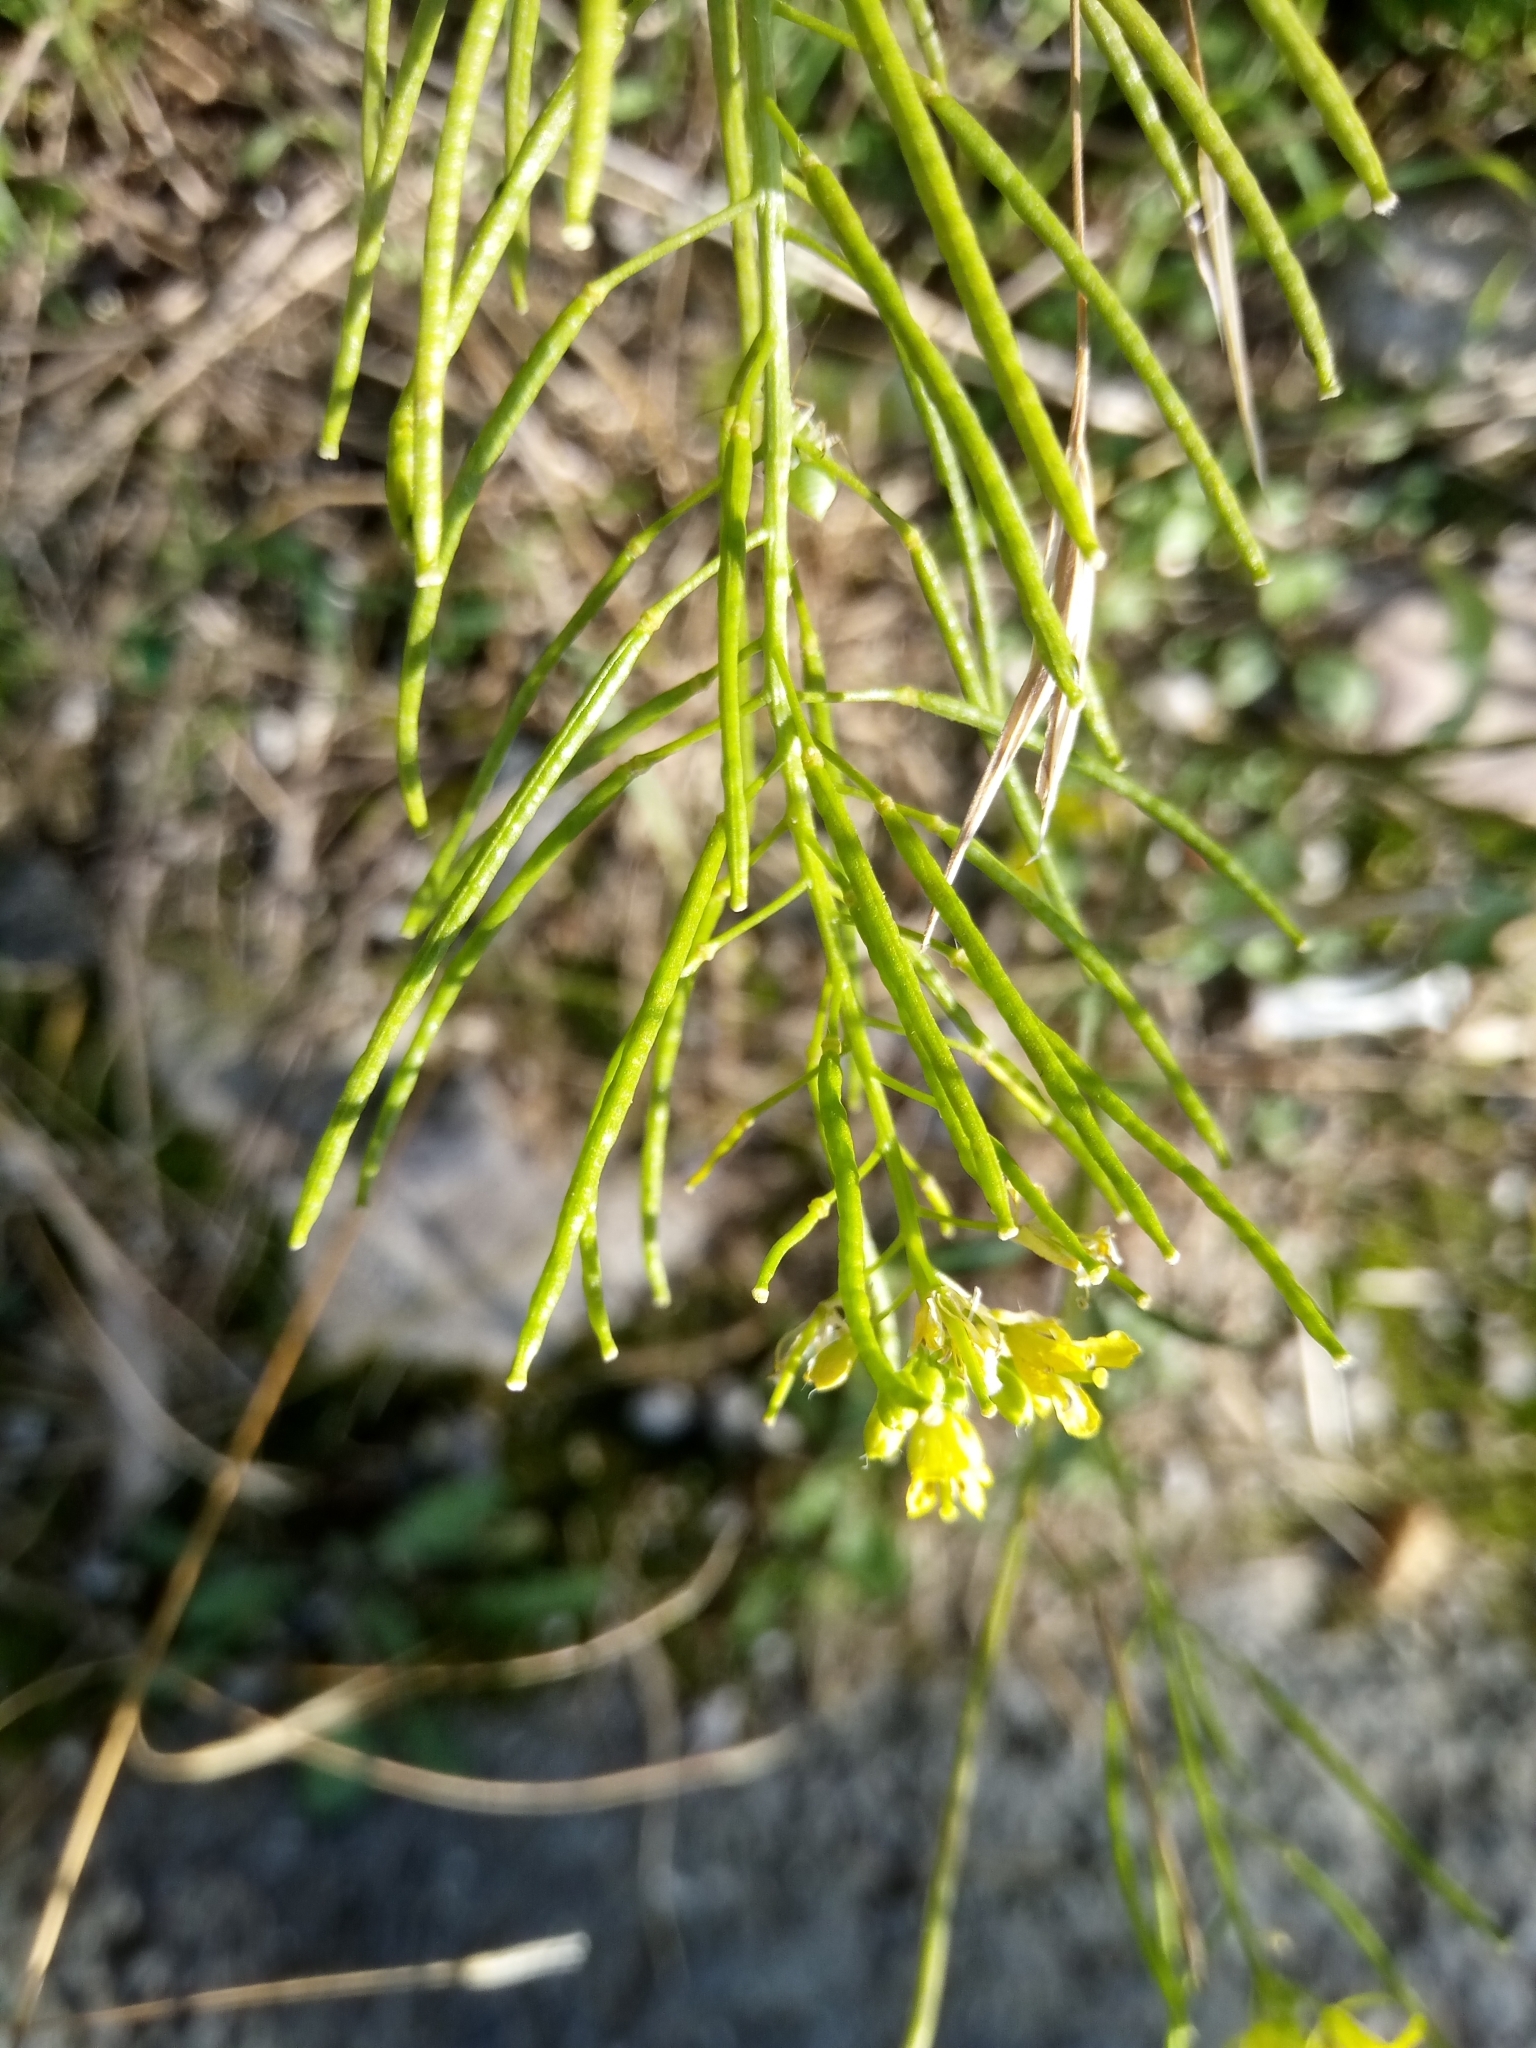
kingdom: Plantae
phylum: Tracheophyta
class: Magnoliopsida
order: Brassicales
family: Brassicaceae
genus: Sisymbrium
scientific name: Sisymbrium loeselii
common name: False london-rocket
